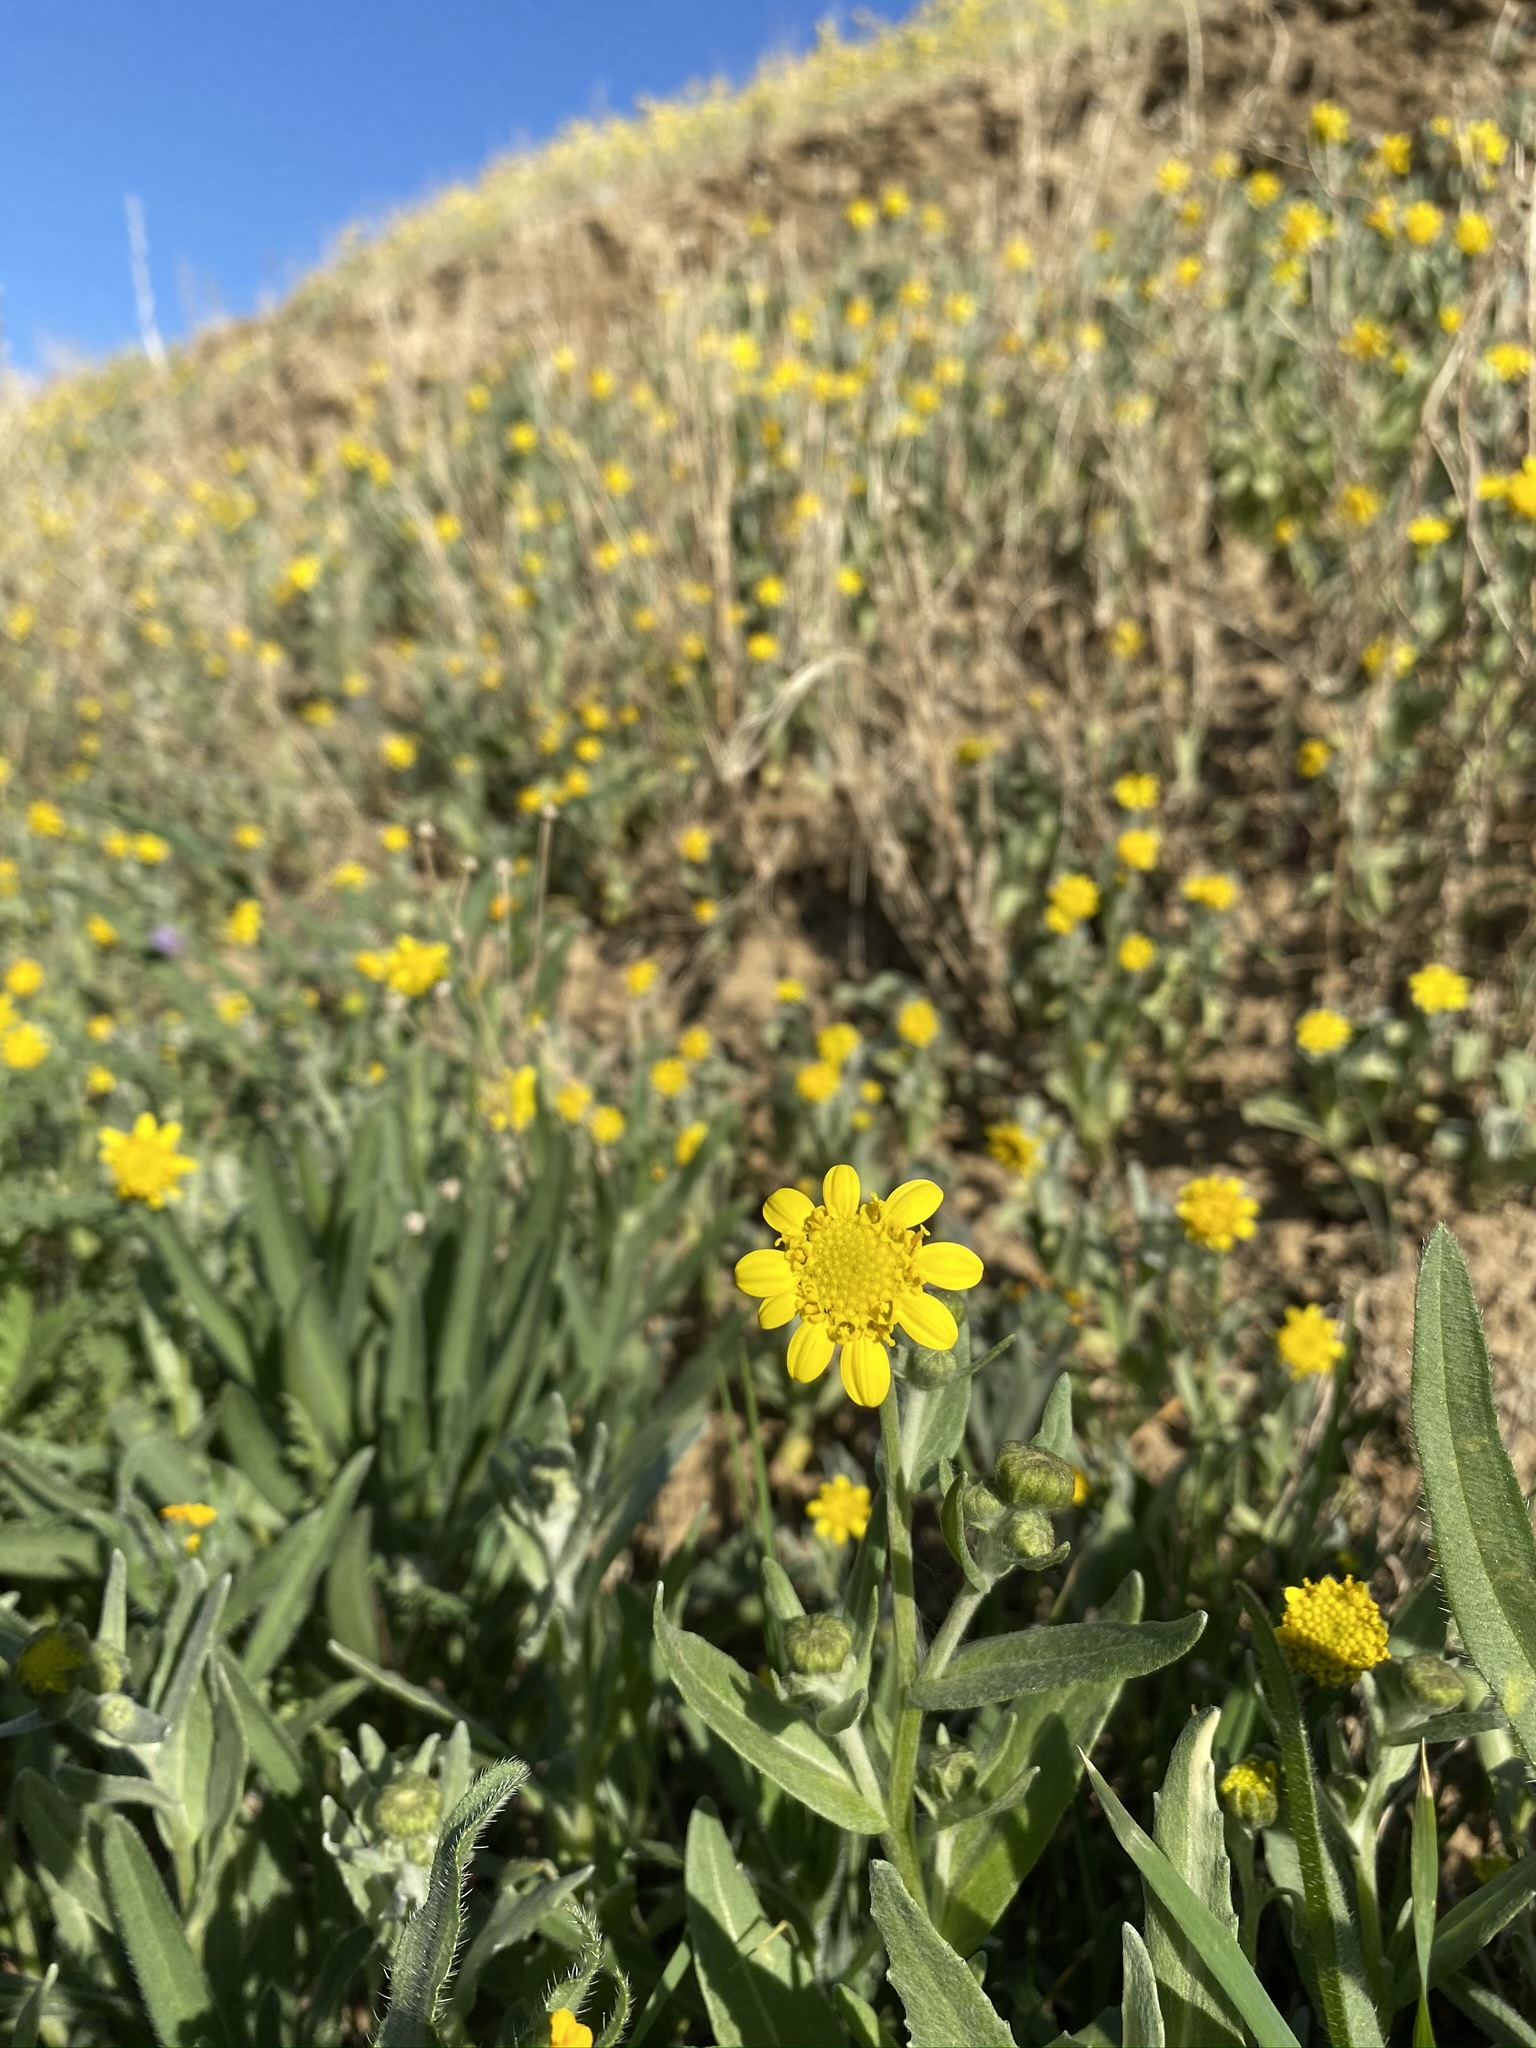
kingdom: Plantae
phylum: Tracheophyta
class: Magnoliopsida
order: Asterales
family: Asteraceae
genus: Monolopia
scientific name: Monolopia stricta
